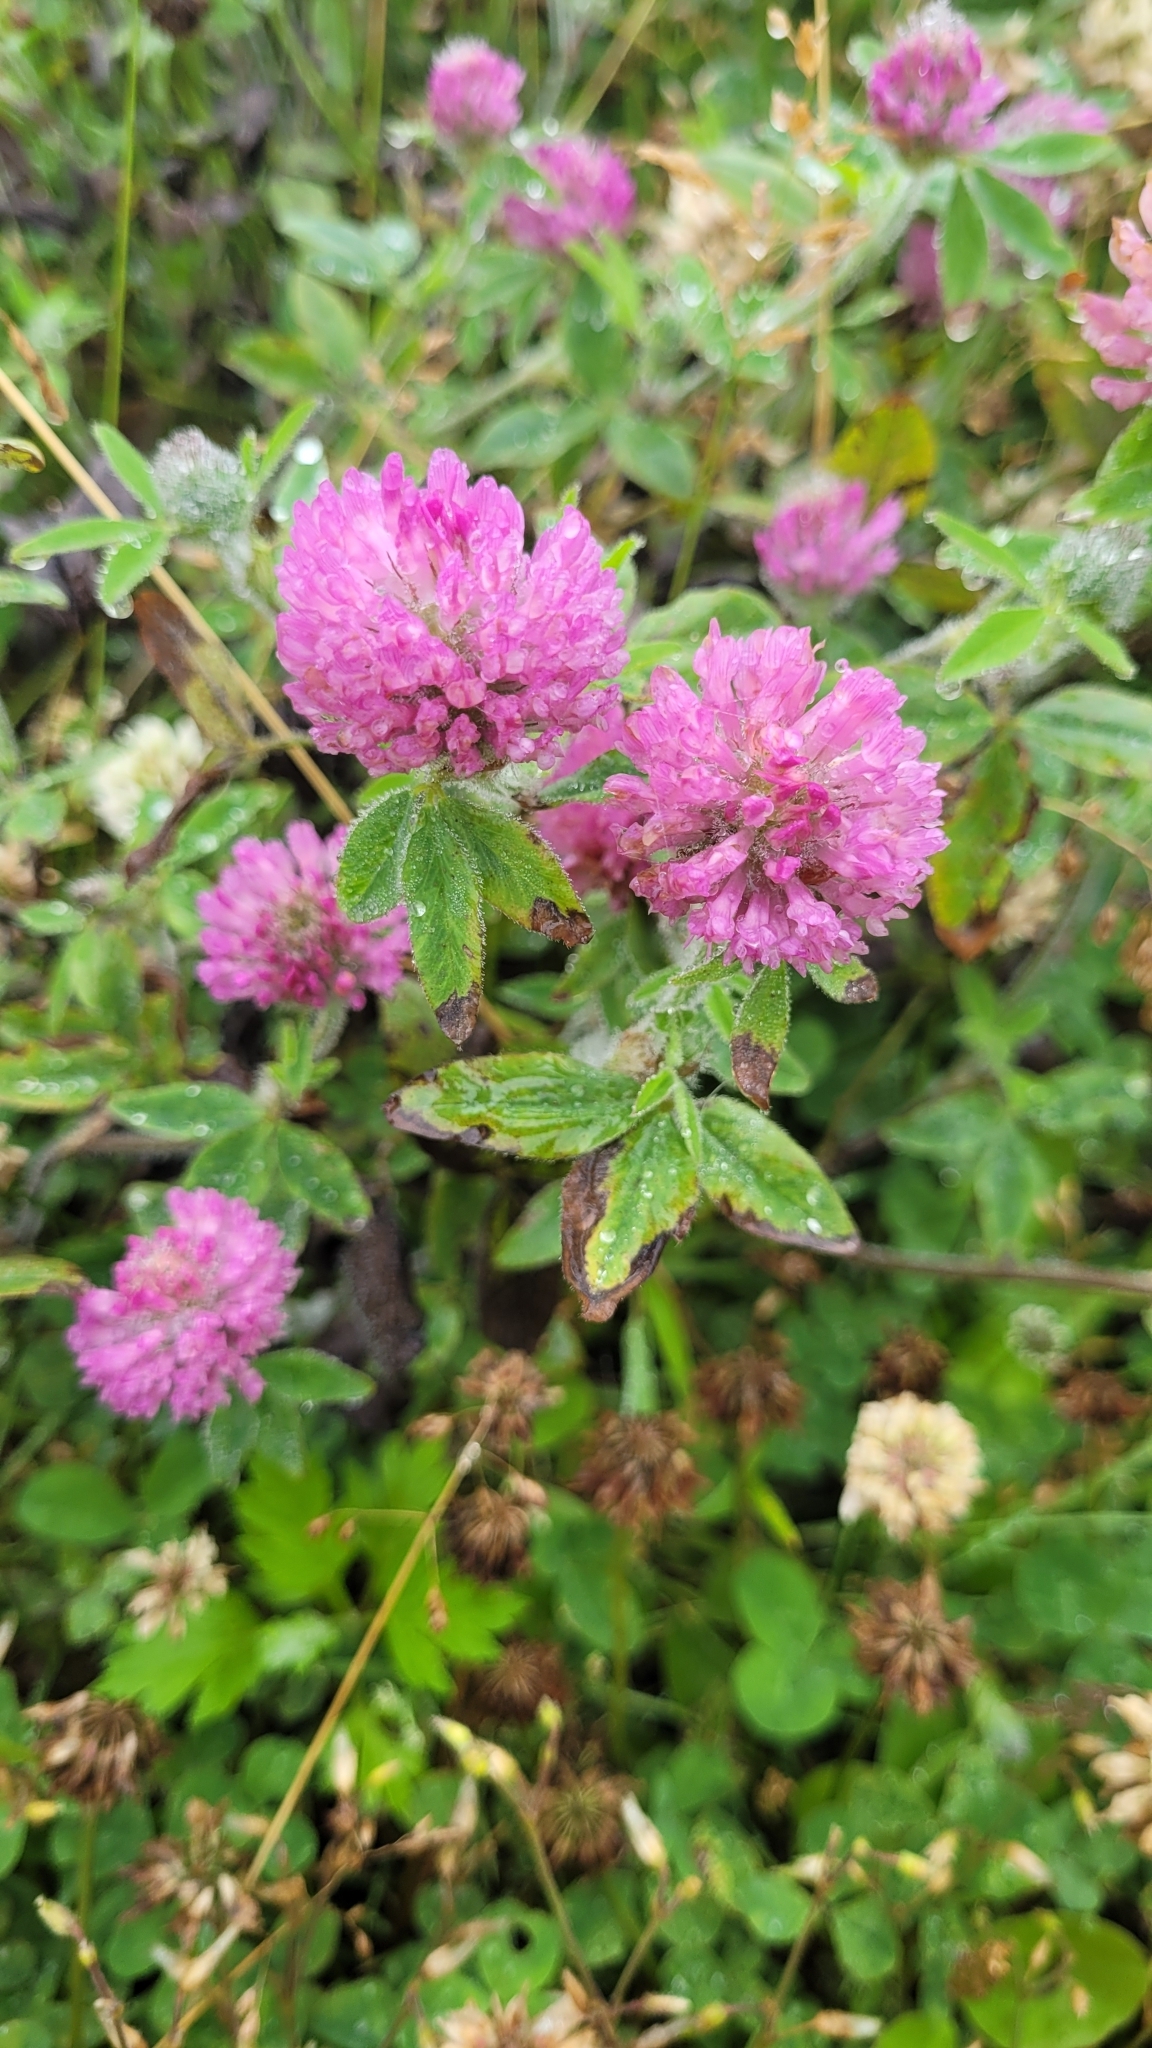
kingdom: Plantae
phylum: Tracheophyta
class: Magnoliopsida
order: Fabales
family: Fabaceae
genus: Trifolium
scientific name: Trifolium pratense
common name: Red clover
